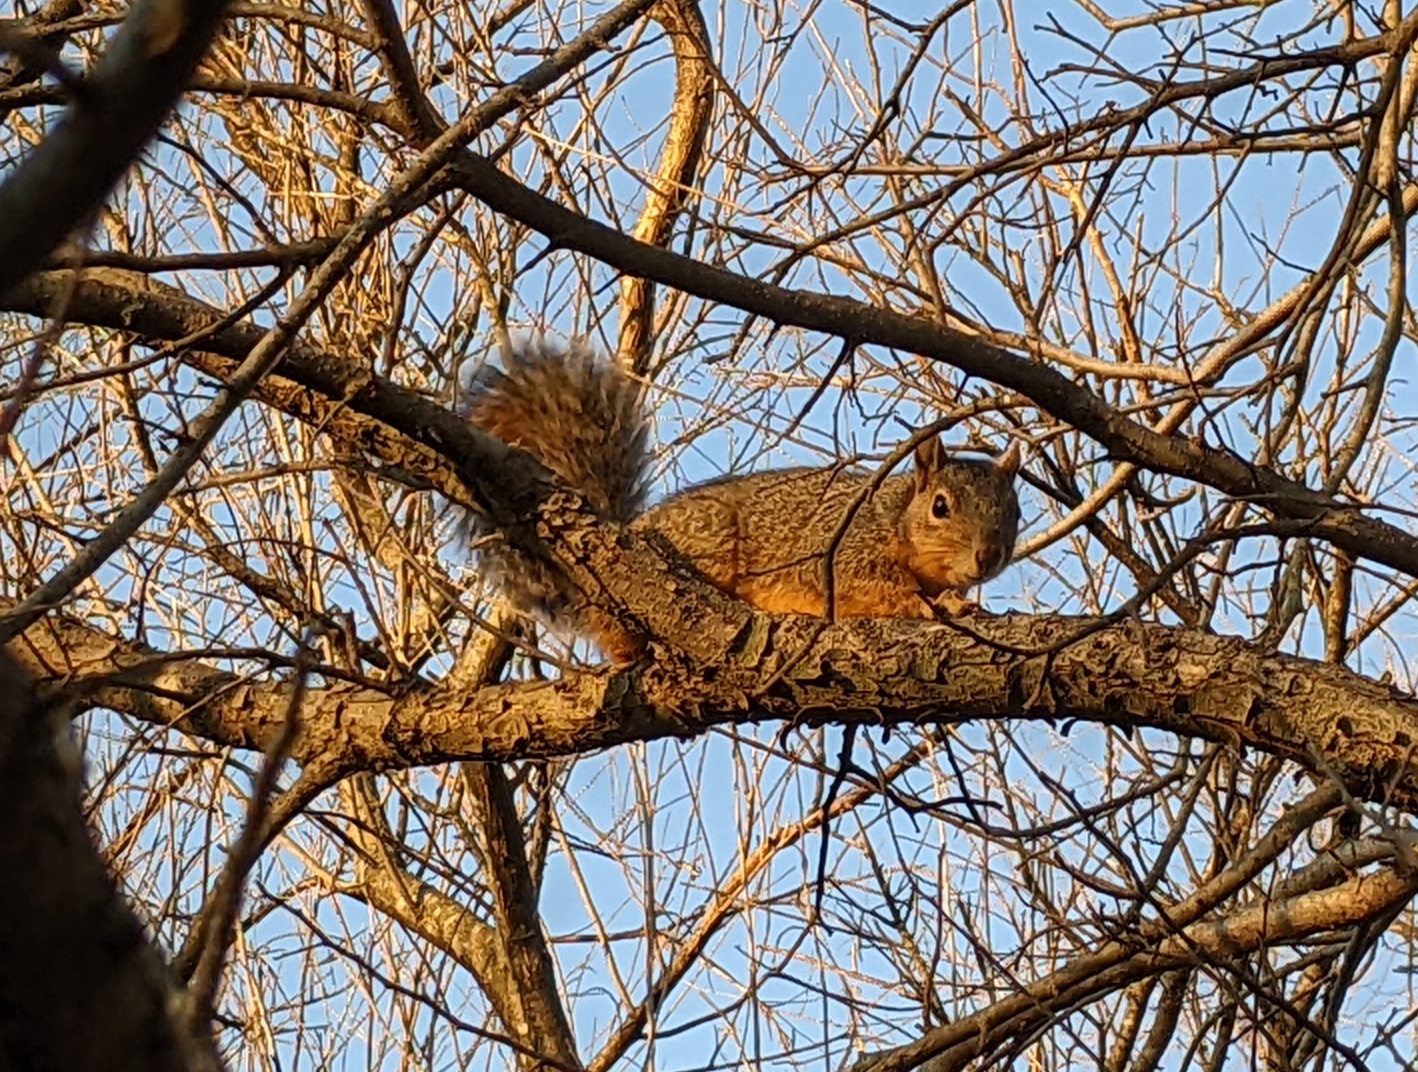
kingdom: Animalia
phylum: Chordata
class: Mammalia
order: Rodentia
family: Sciuridae
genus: Sciurus
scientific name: Sciurus niger
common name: Fox squirrel
